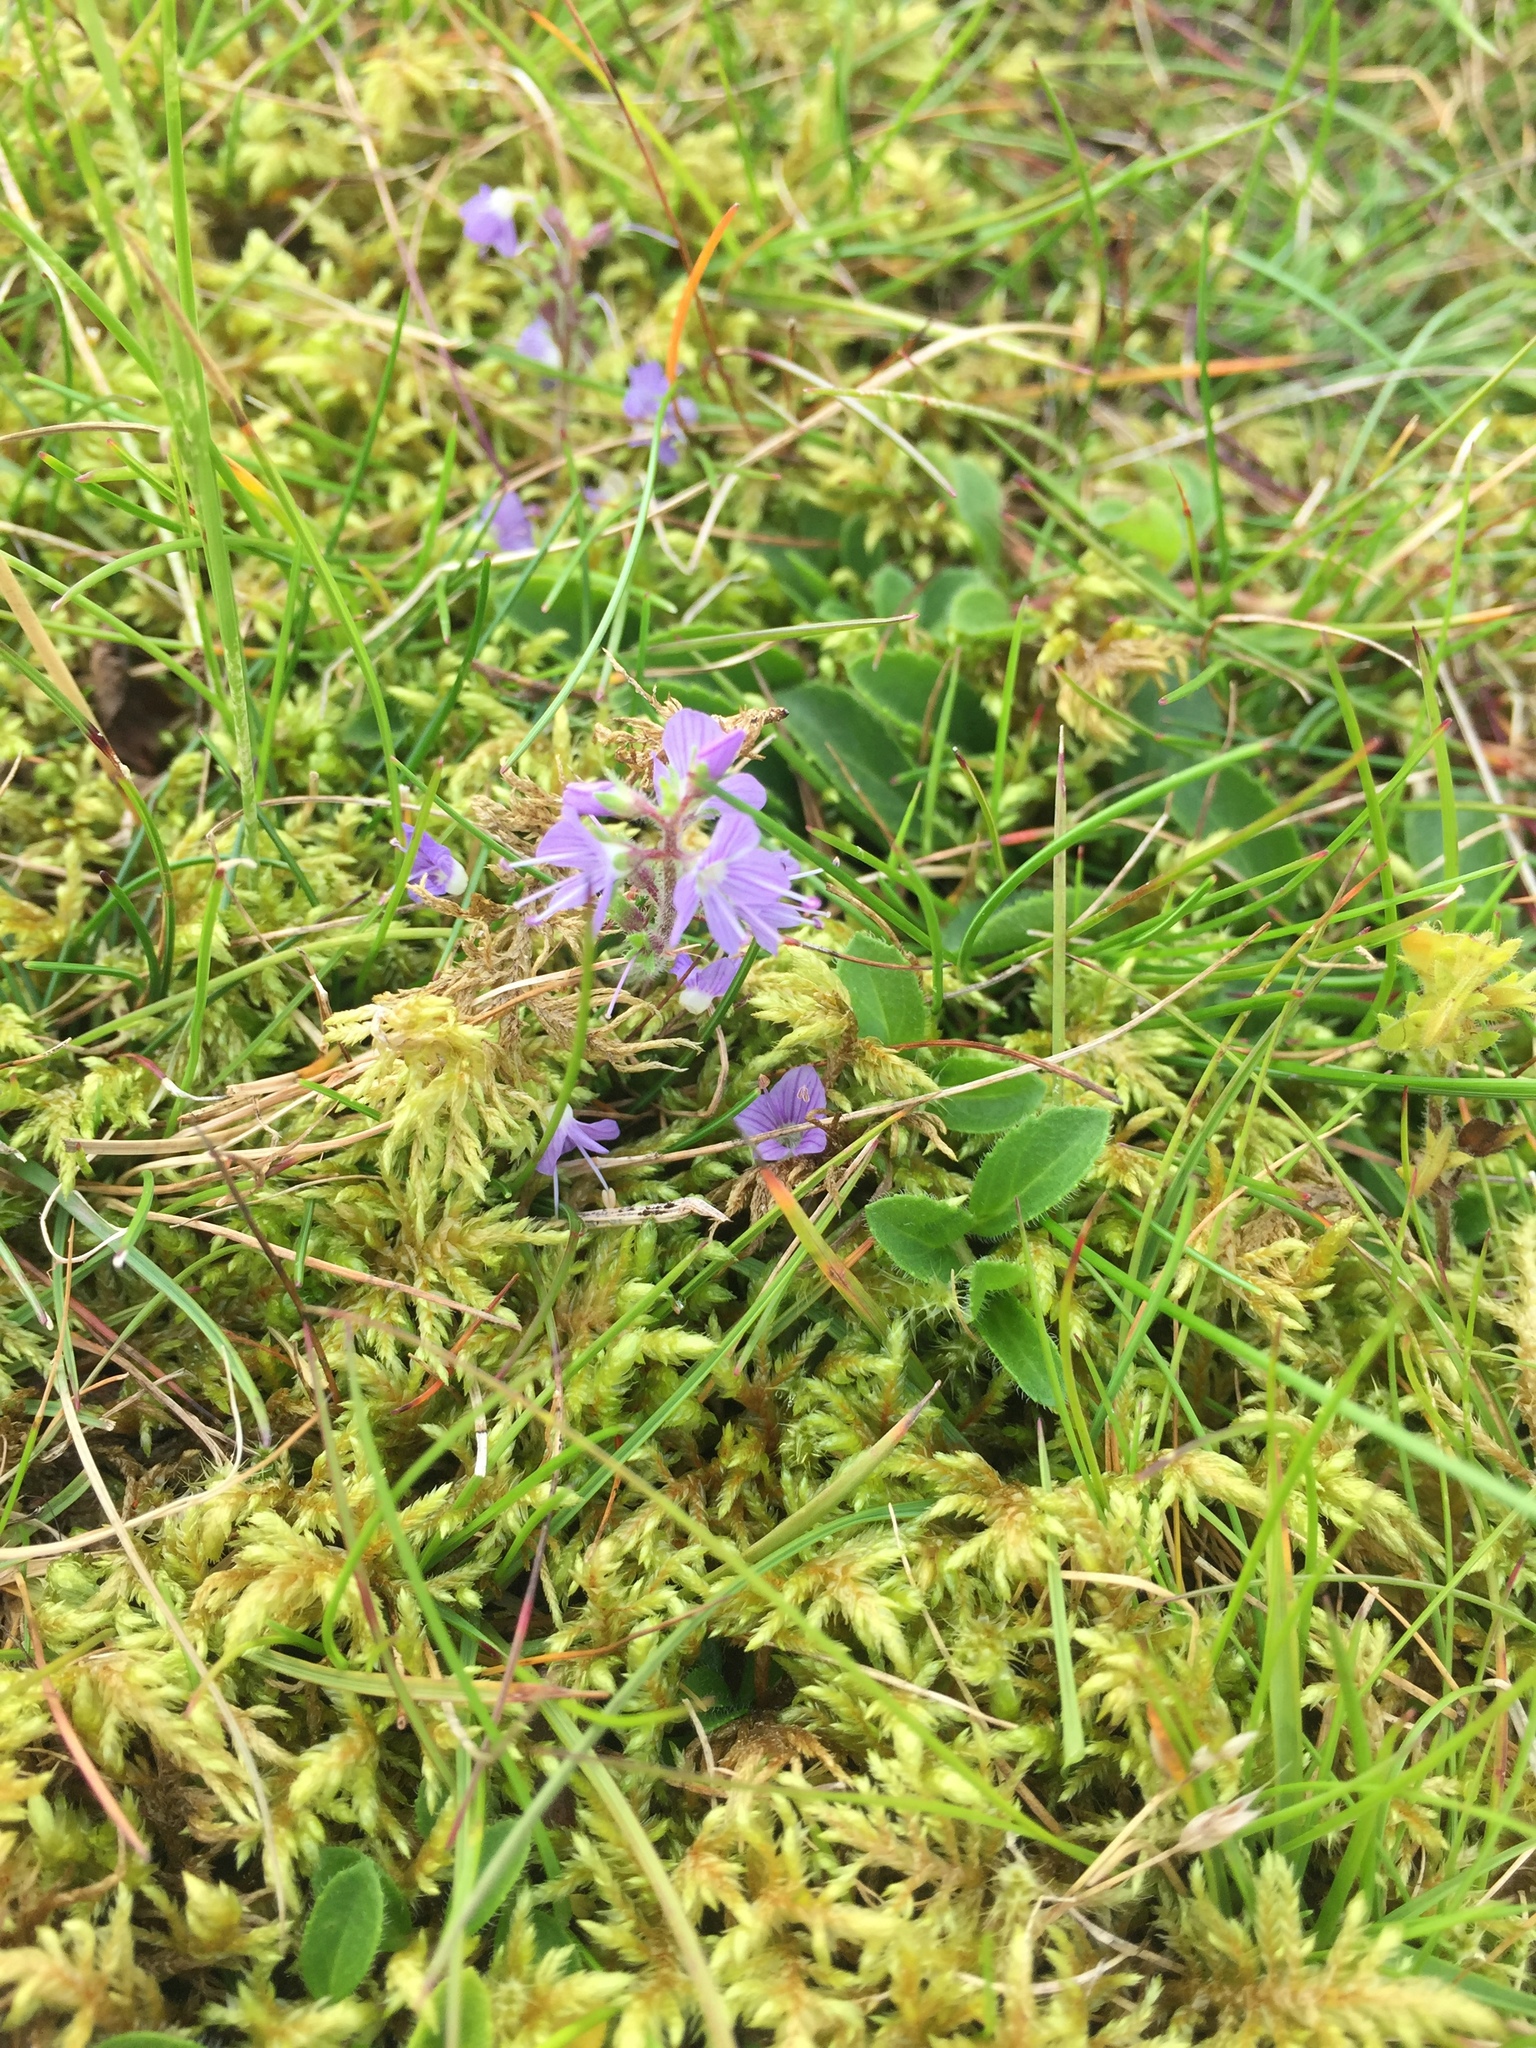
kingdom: Plantae
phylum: Tracheophyta
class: Magnoliopsida
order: Lamiales
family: Plantaginaceae
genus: Veronica
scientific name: Veronica officinalis
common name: Common speedwell
